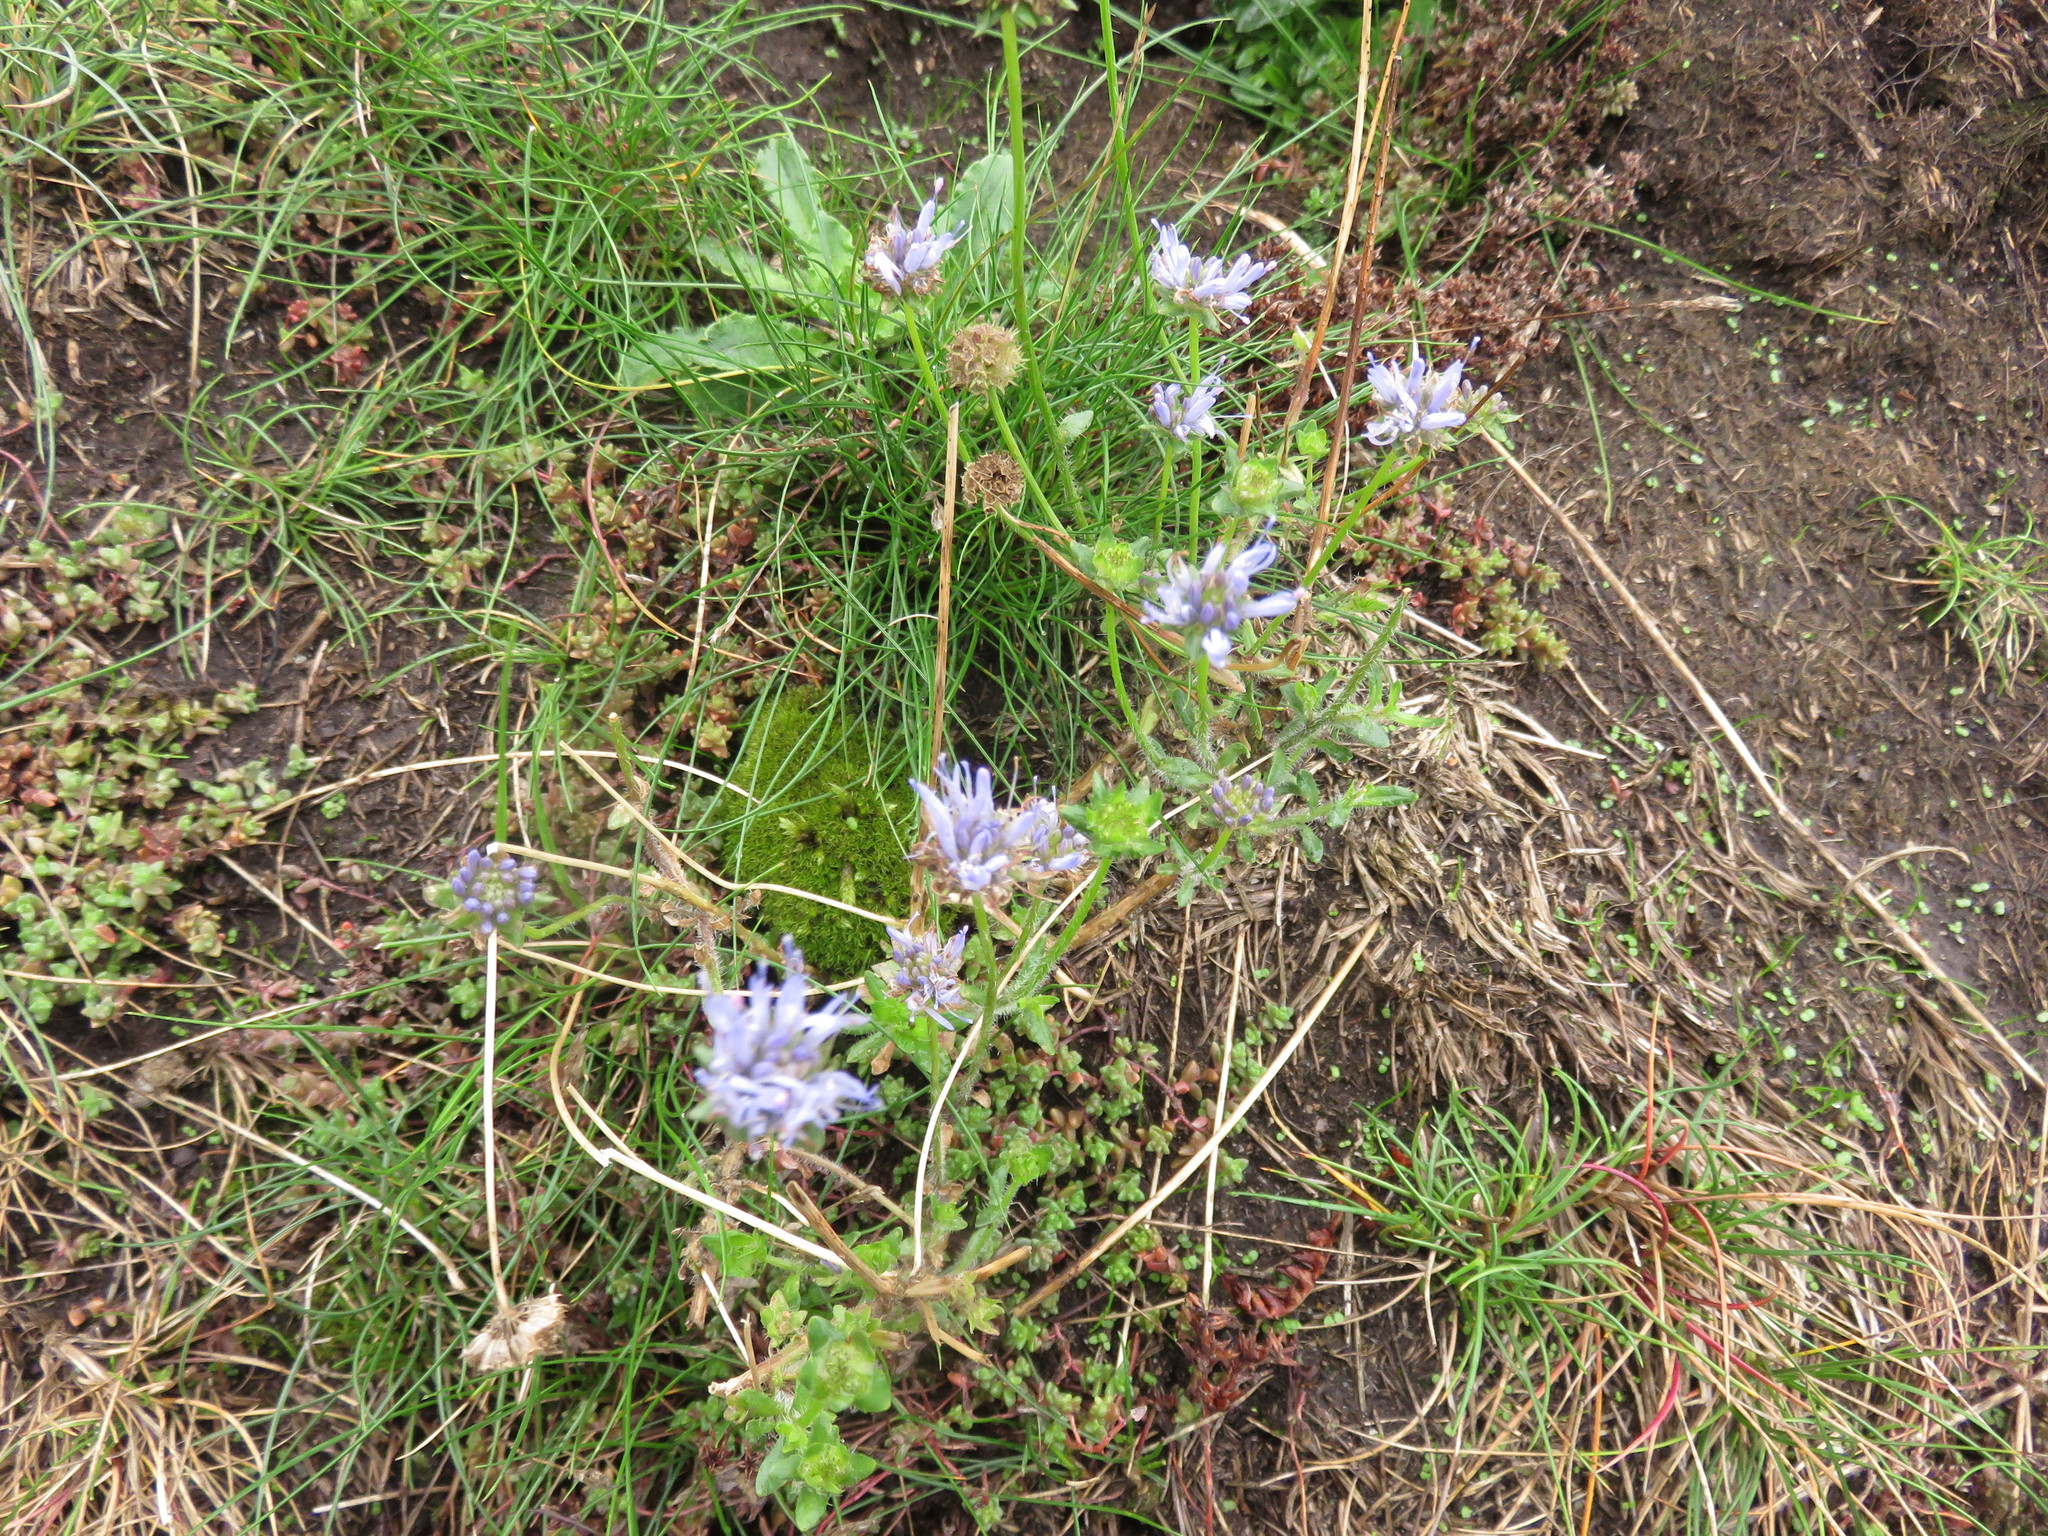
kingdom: Plantae
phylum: Tracheophyta
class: Magnoliopsida
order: Asterales
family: Campanulaceae
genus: Jasione
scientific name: Jasione montana
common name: Sheep's-bit
